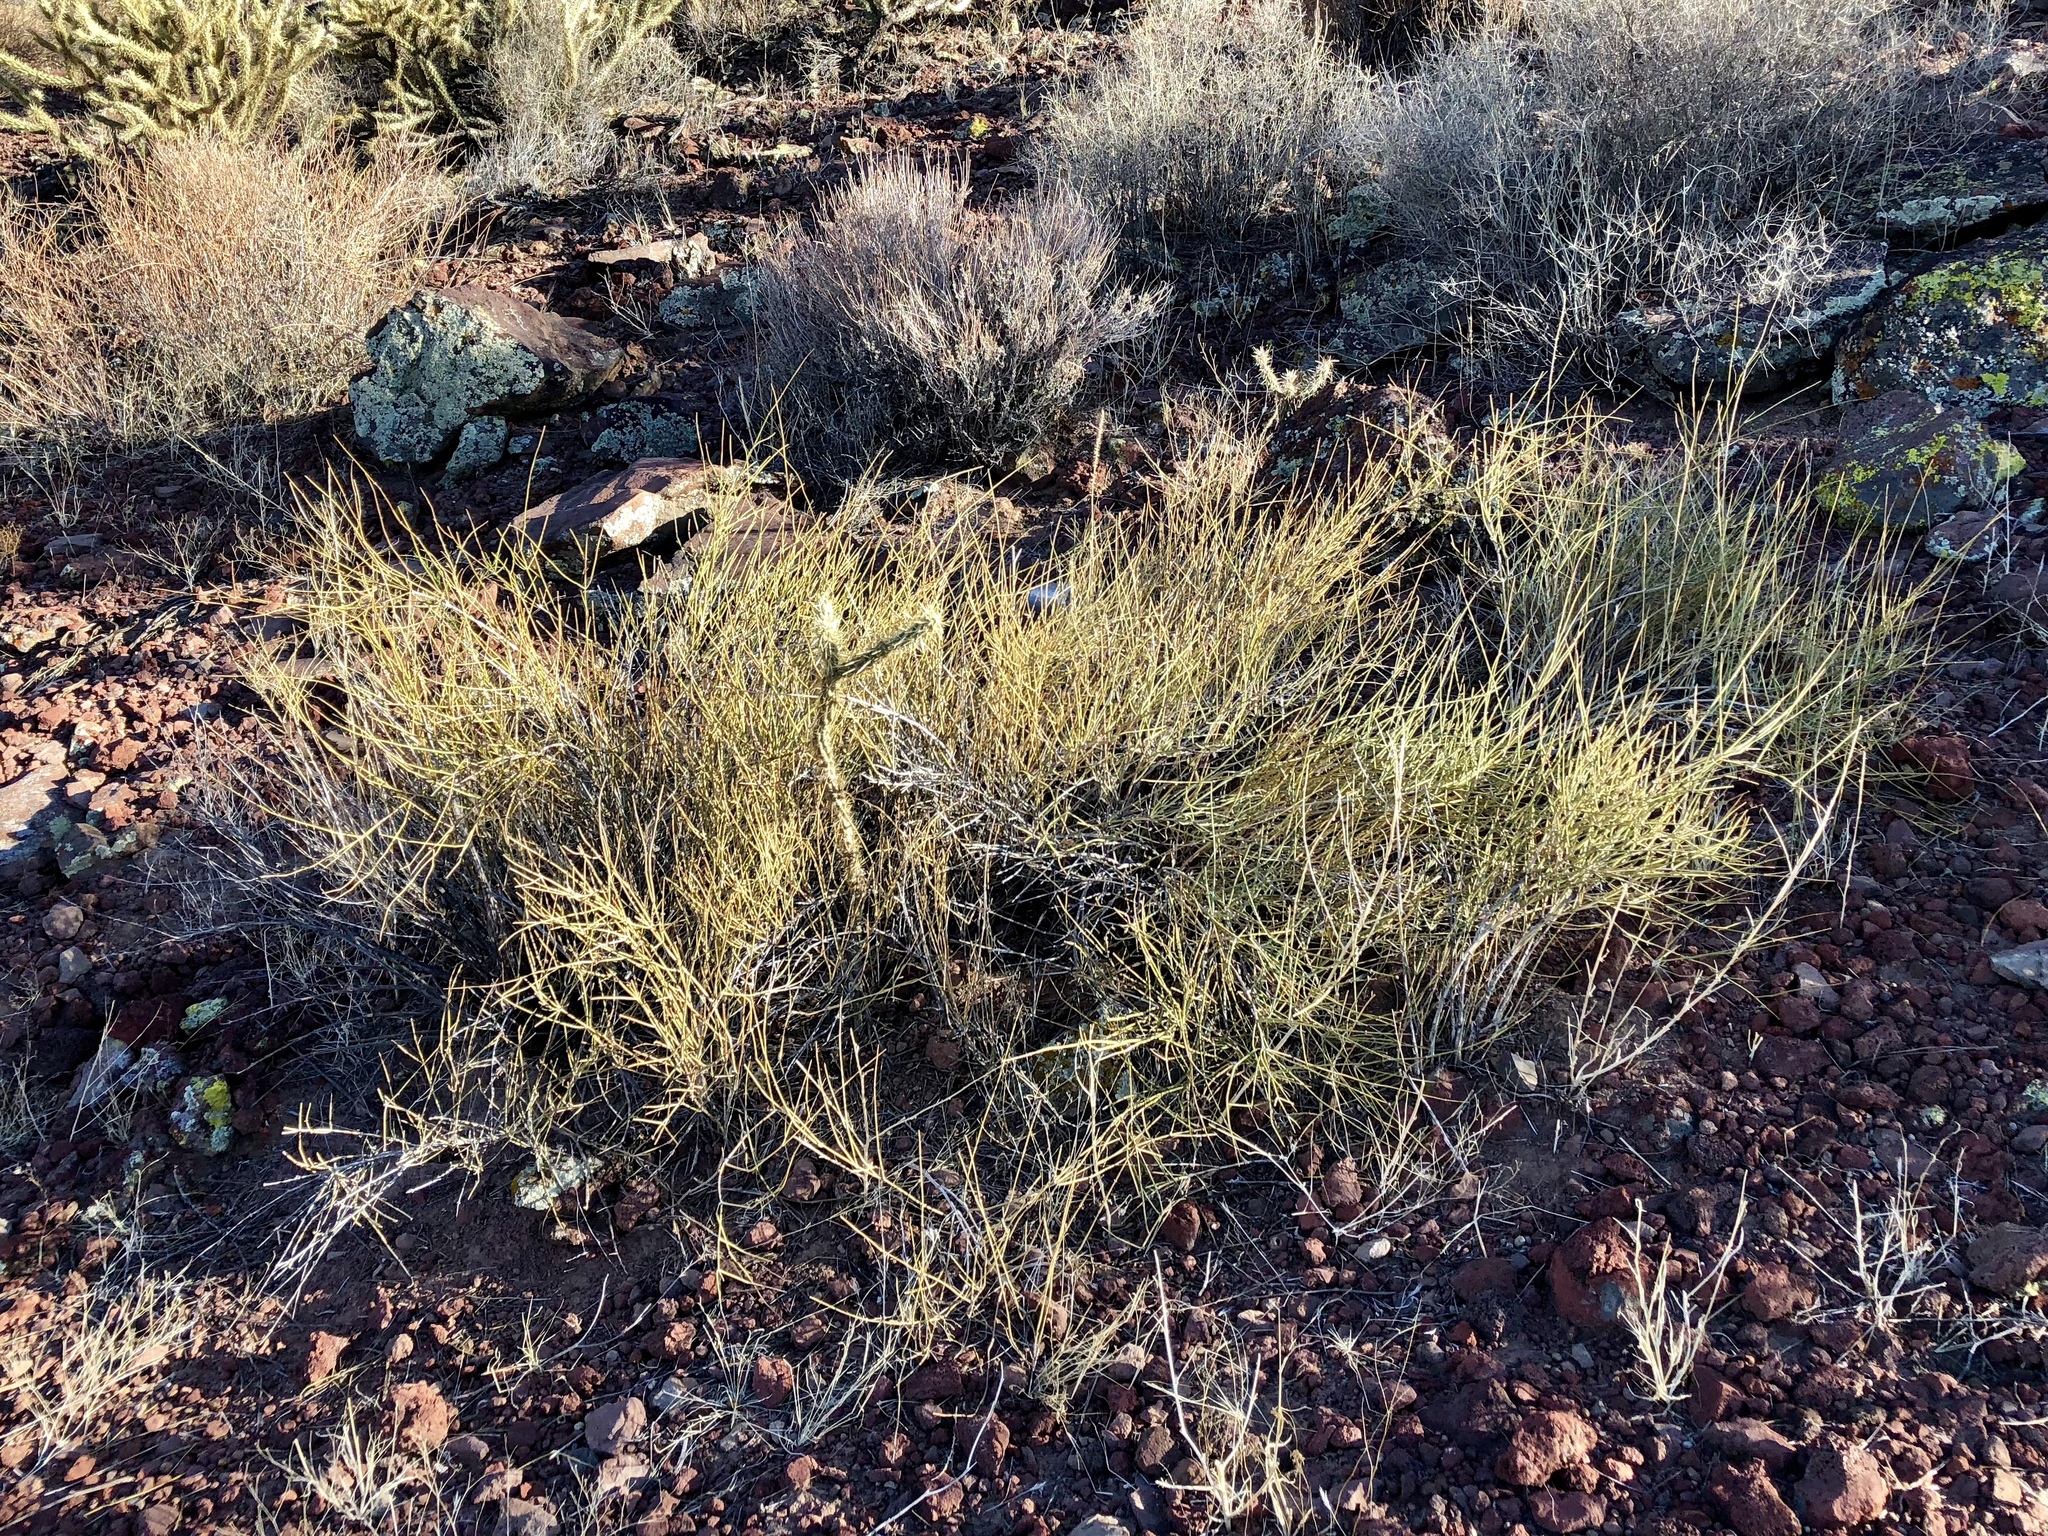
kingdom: Plantae
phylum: Tracheophyta
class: Gnetopsida
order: Ephedrales
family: Ephedraceae
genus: Ephedra
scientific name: Ephedra viridis
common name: Green ephedra
